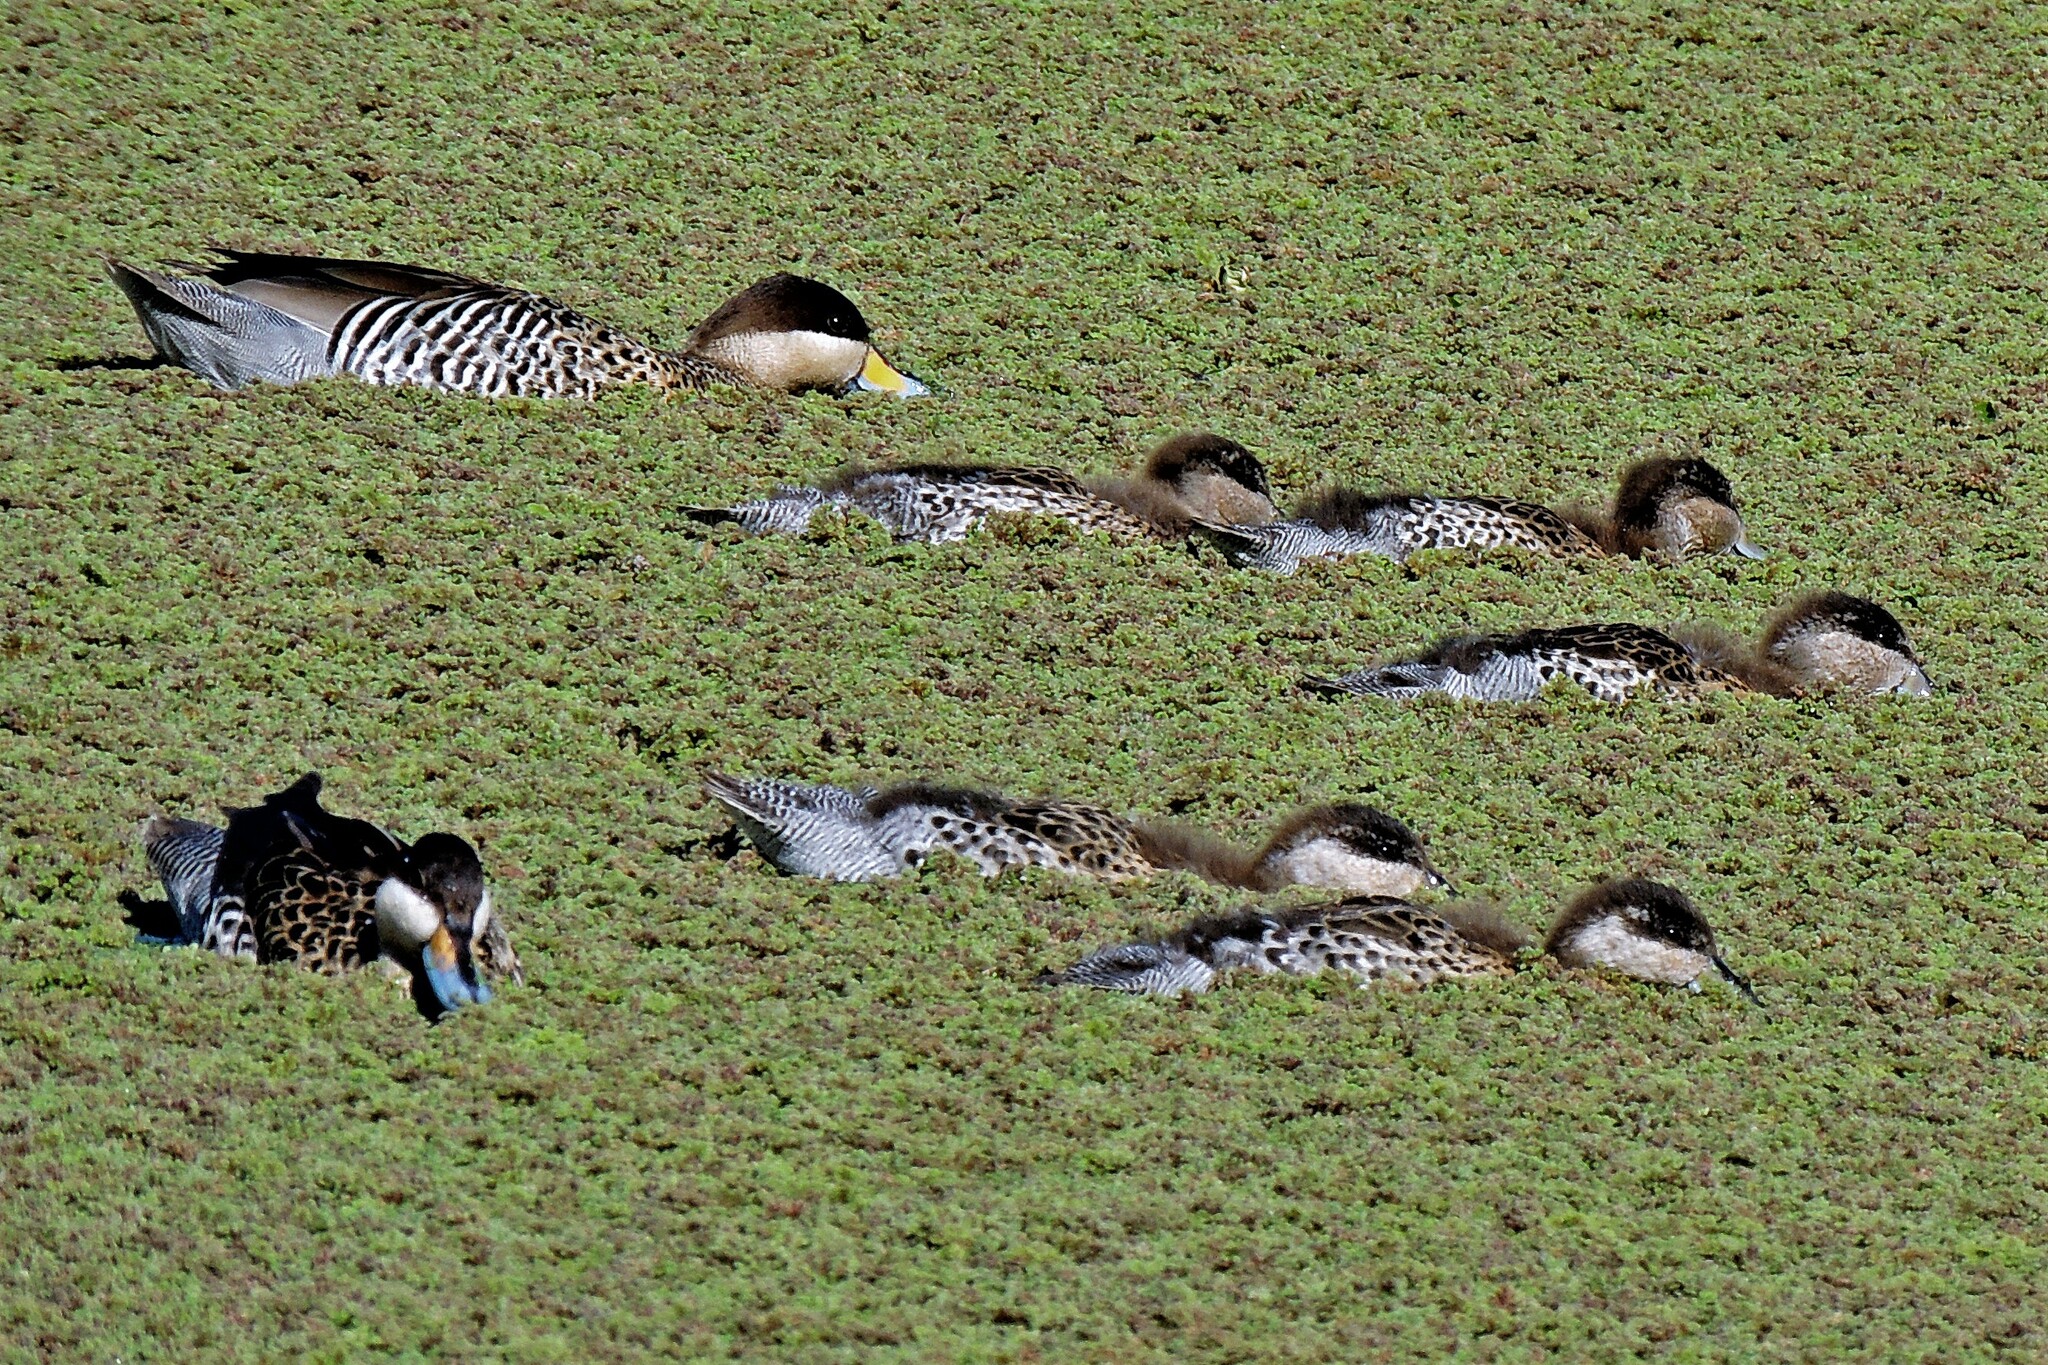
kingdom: Animalia
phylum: Chordata
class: Aves
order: Anseriformes
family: Anatidae
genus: Spatula
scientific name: Spatula versicolor
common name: Silver teal
